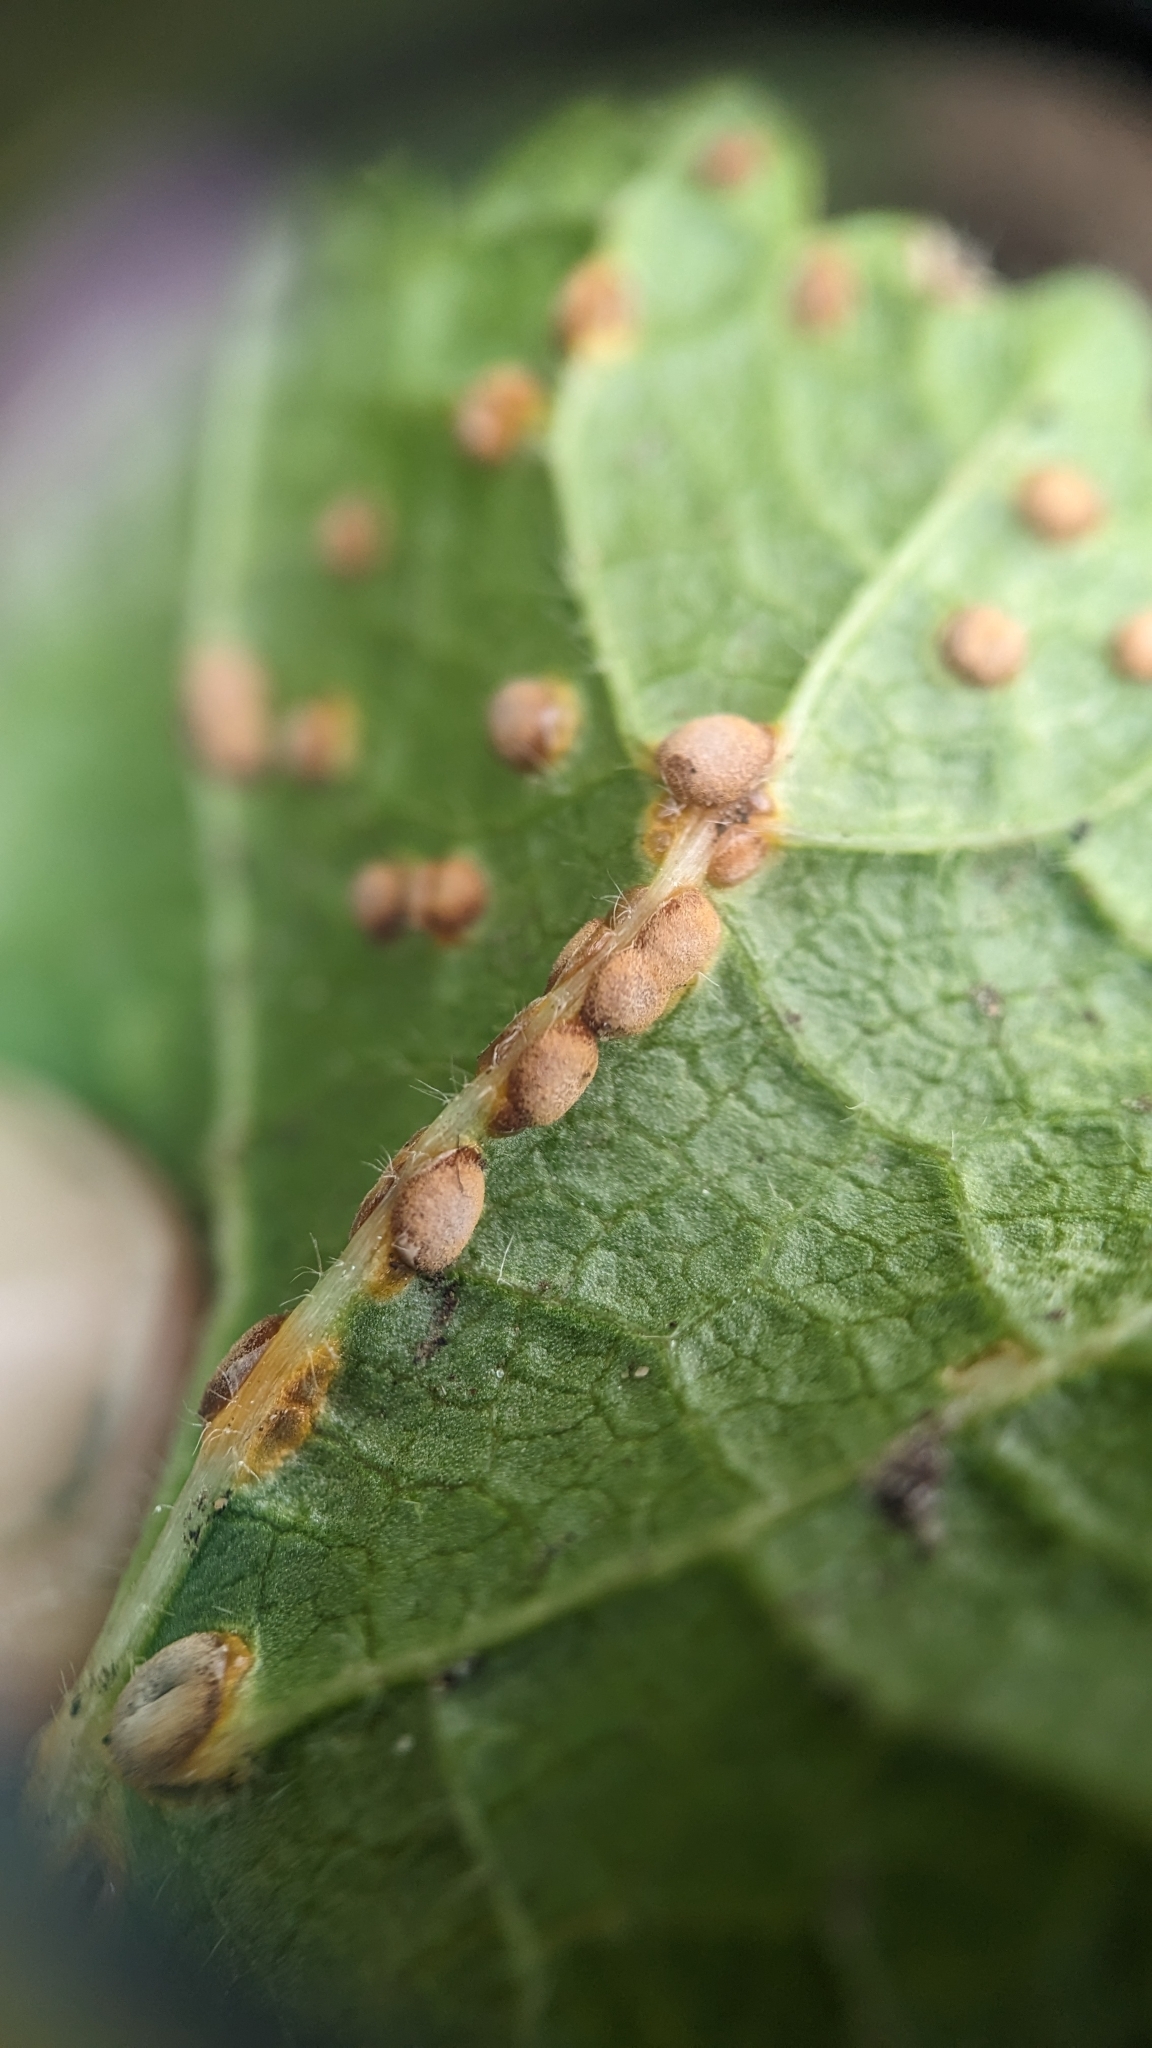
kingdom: Fungi
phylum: Basidiomycota
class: Pucciniomycetes
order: Pucciniales
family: Pucciniaceae
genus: Puccinia
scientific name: Puccinia malvacearum
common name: Hollyhock rust
